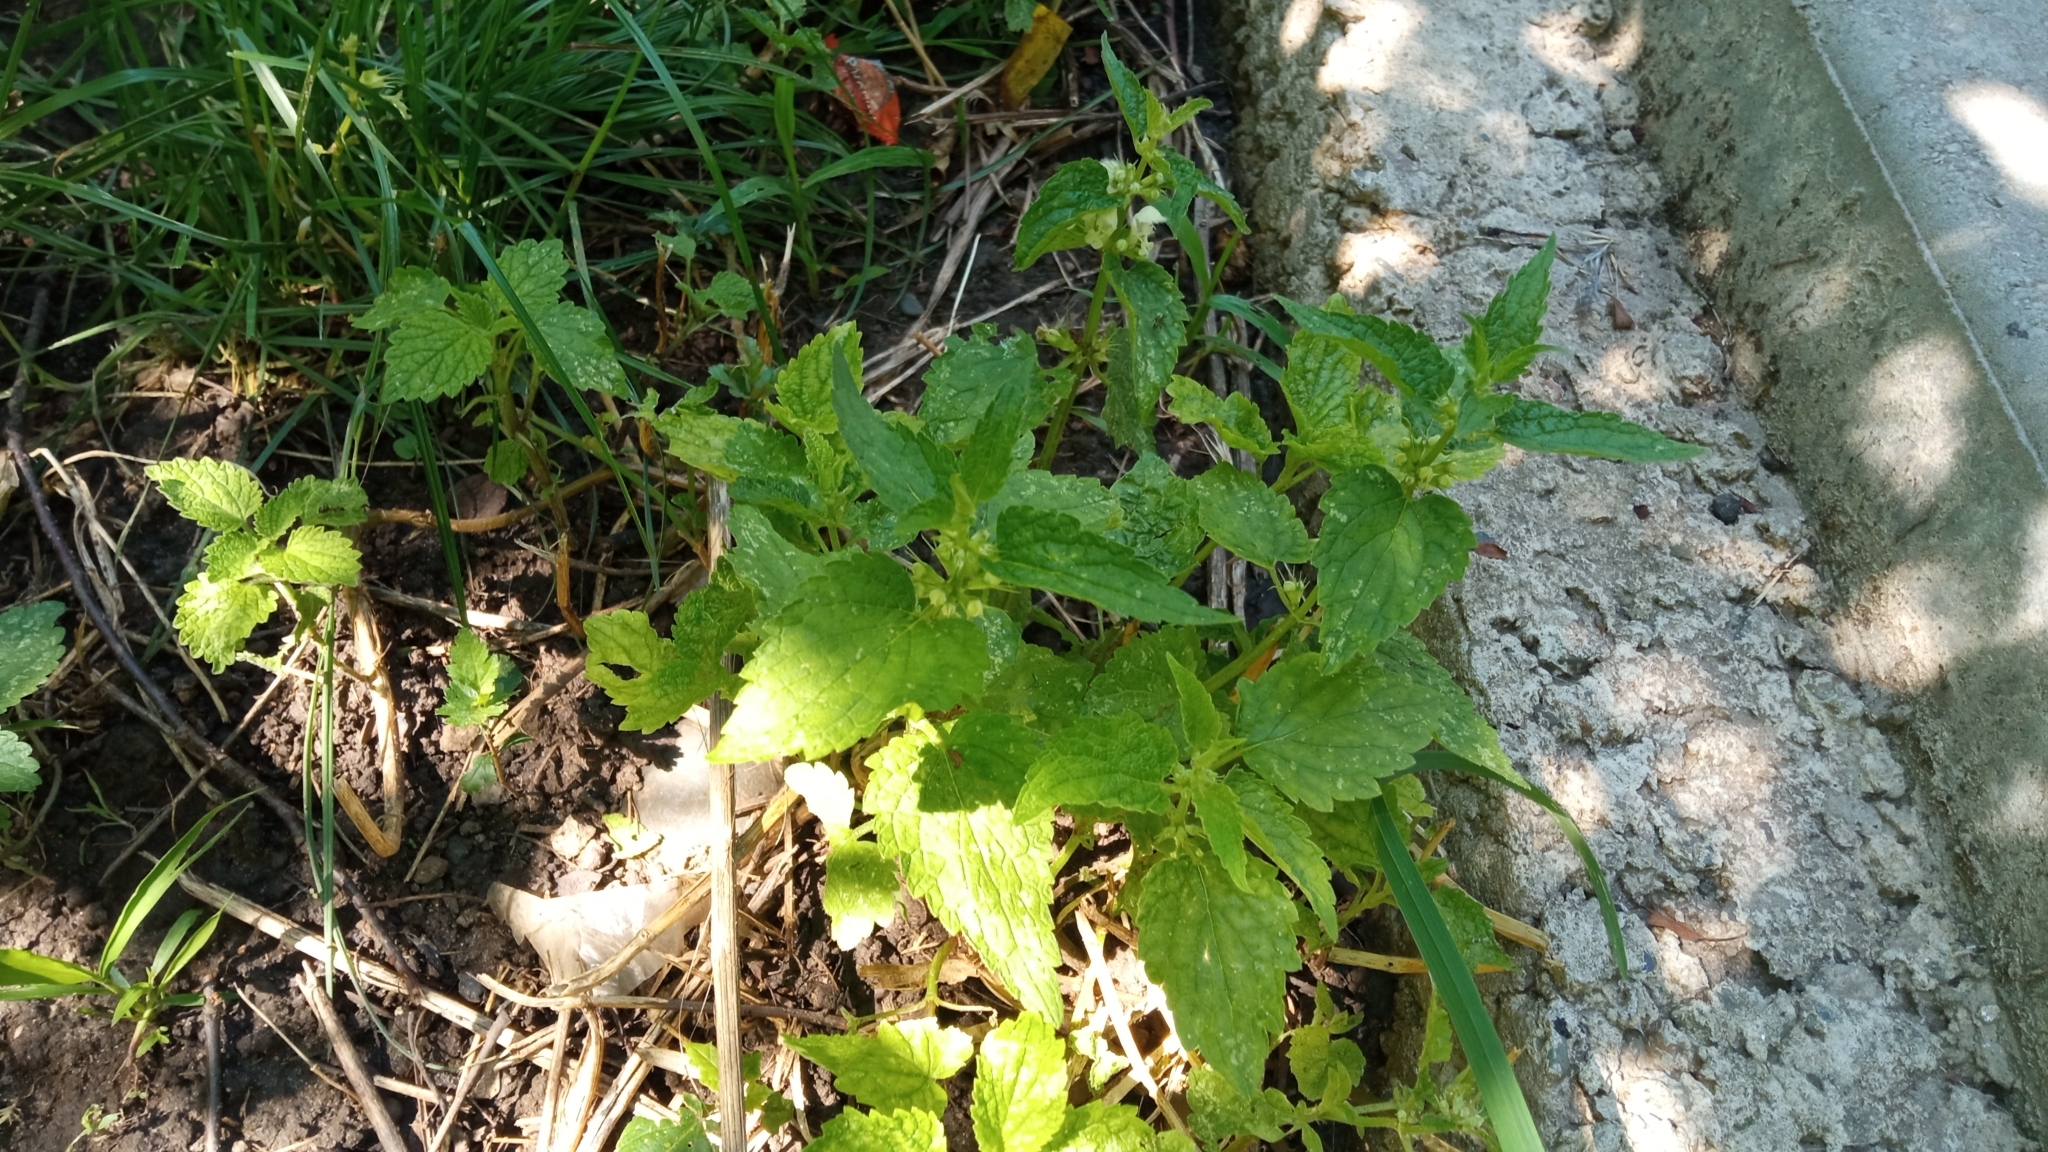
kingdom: Plantae
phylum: Tracheophyta
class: Magnoliopsida
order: Lamiales
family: Lamiaceae
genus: Lamium
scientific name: Lamium album
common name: White dead-nettle
